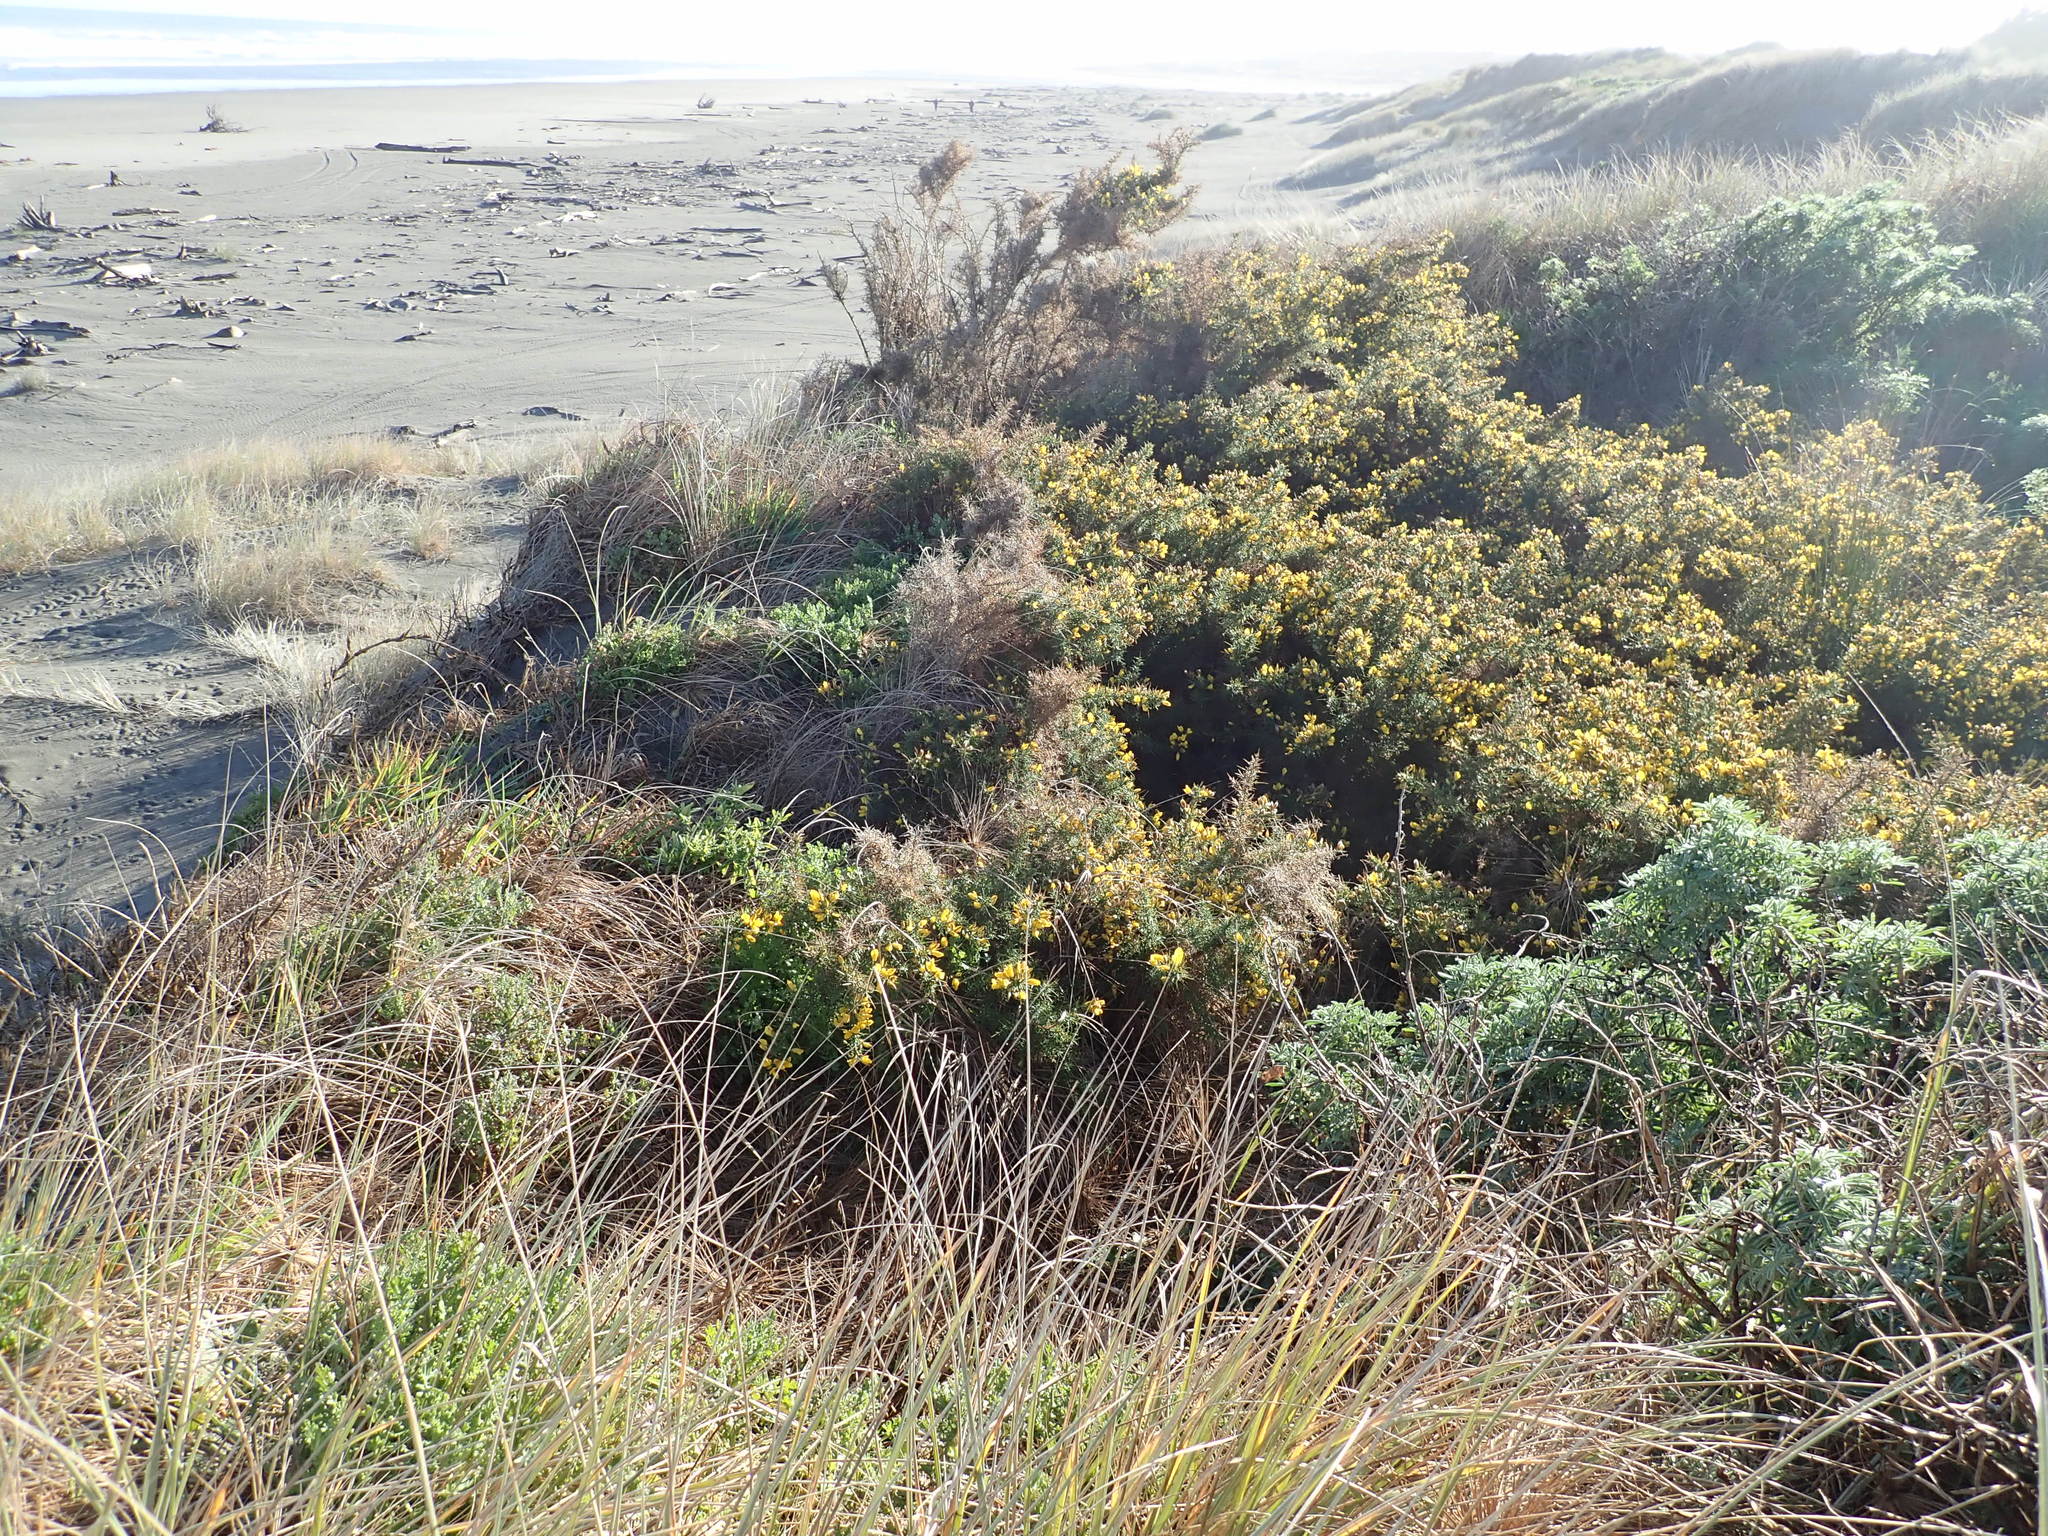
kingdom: Plantae
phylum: Tracheophyta
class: Magnoliopsida
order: Fabales
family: Fabaceae
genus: Ulex
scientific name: Ulex europaeus
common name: Common gorse
